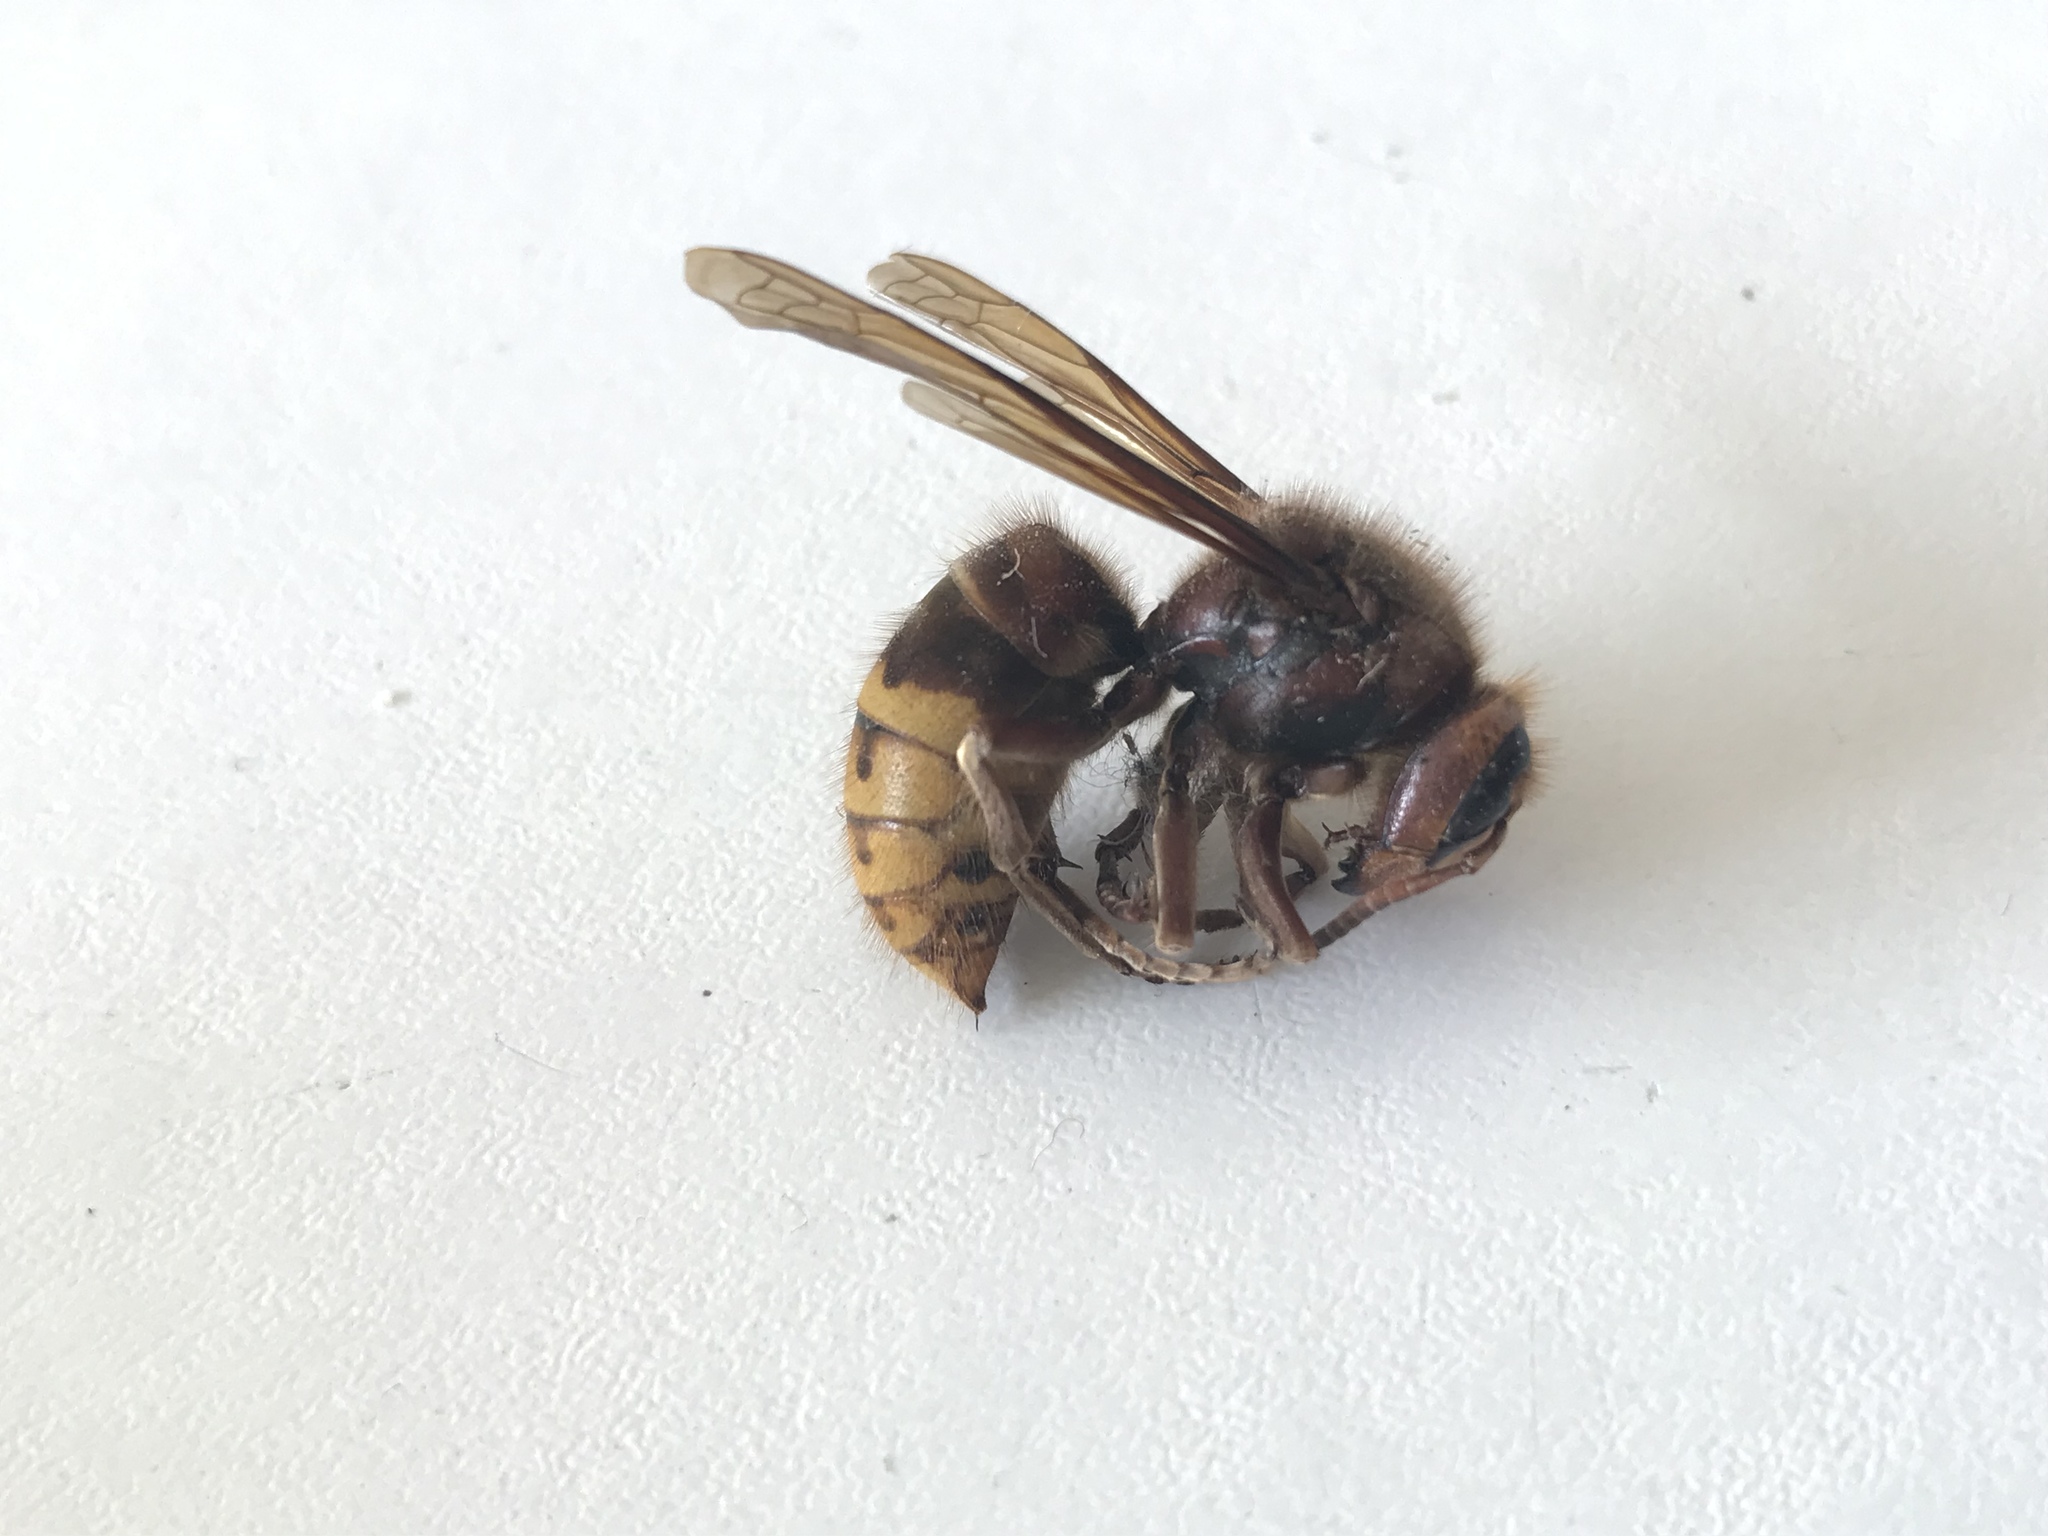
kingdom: Animalia
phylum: Arthropoda
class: Insecta
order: Hymenoptera
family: Vespidae
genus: Vespa
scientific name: Vespa crabro
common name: Hornet
